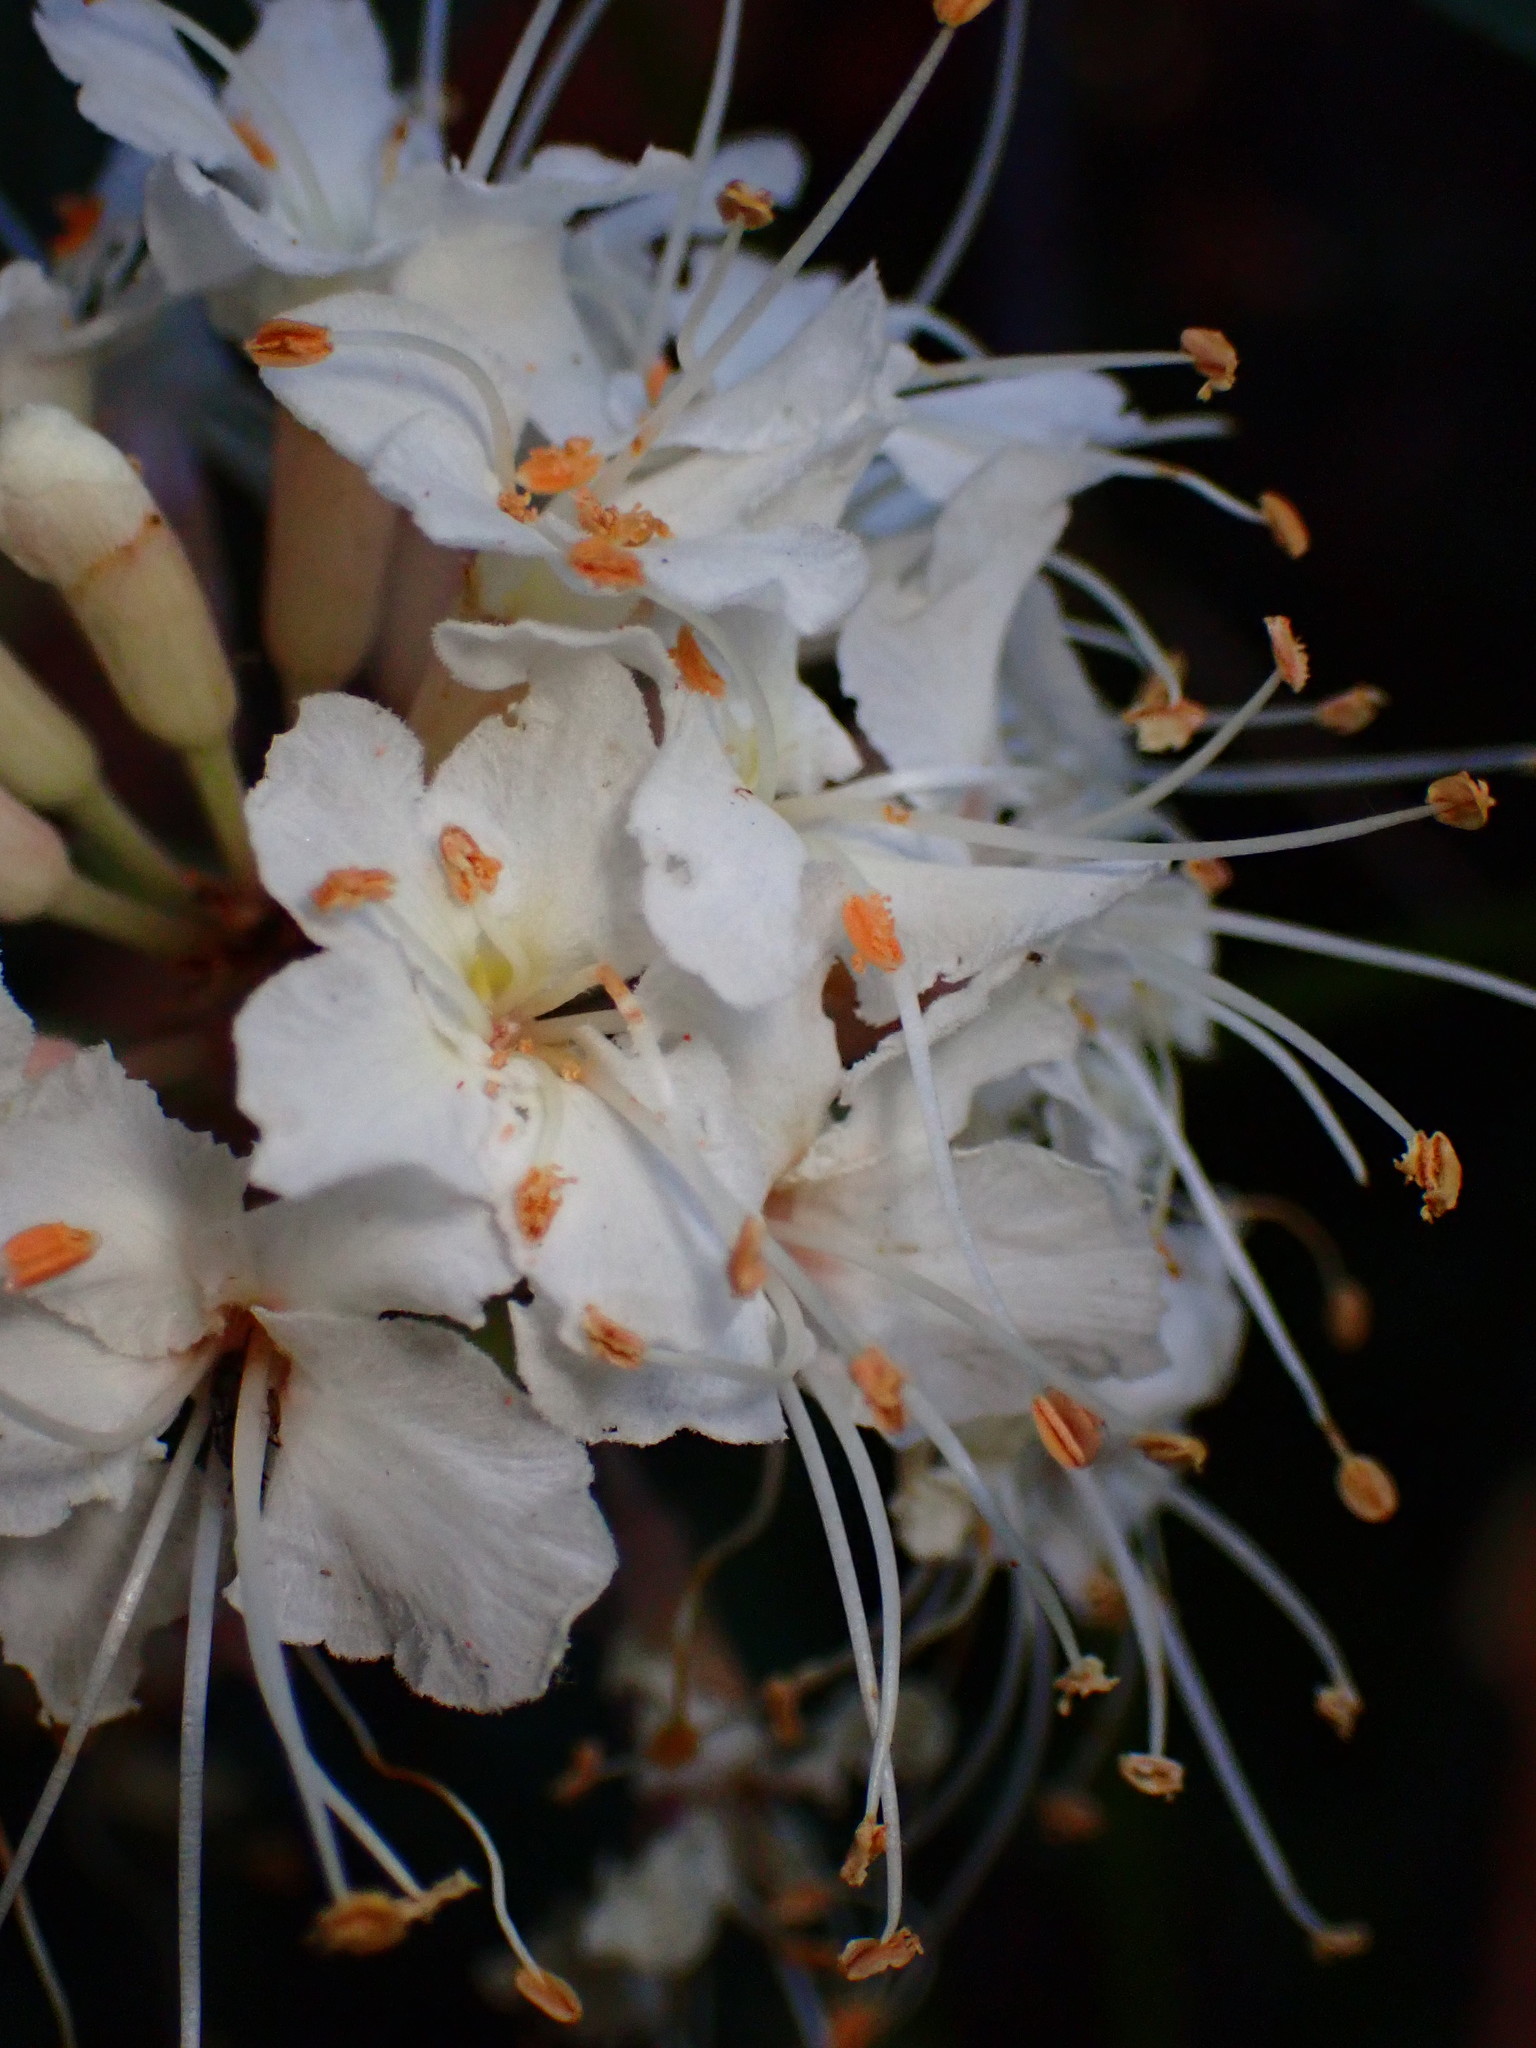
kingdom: Plantae
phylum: Tracheophyta
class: Magnoliopsida
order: Sapindales
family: Sapindaceae
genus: Aesculus
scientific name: Aesculus californica
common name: California buckeye
